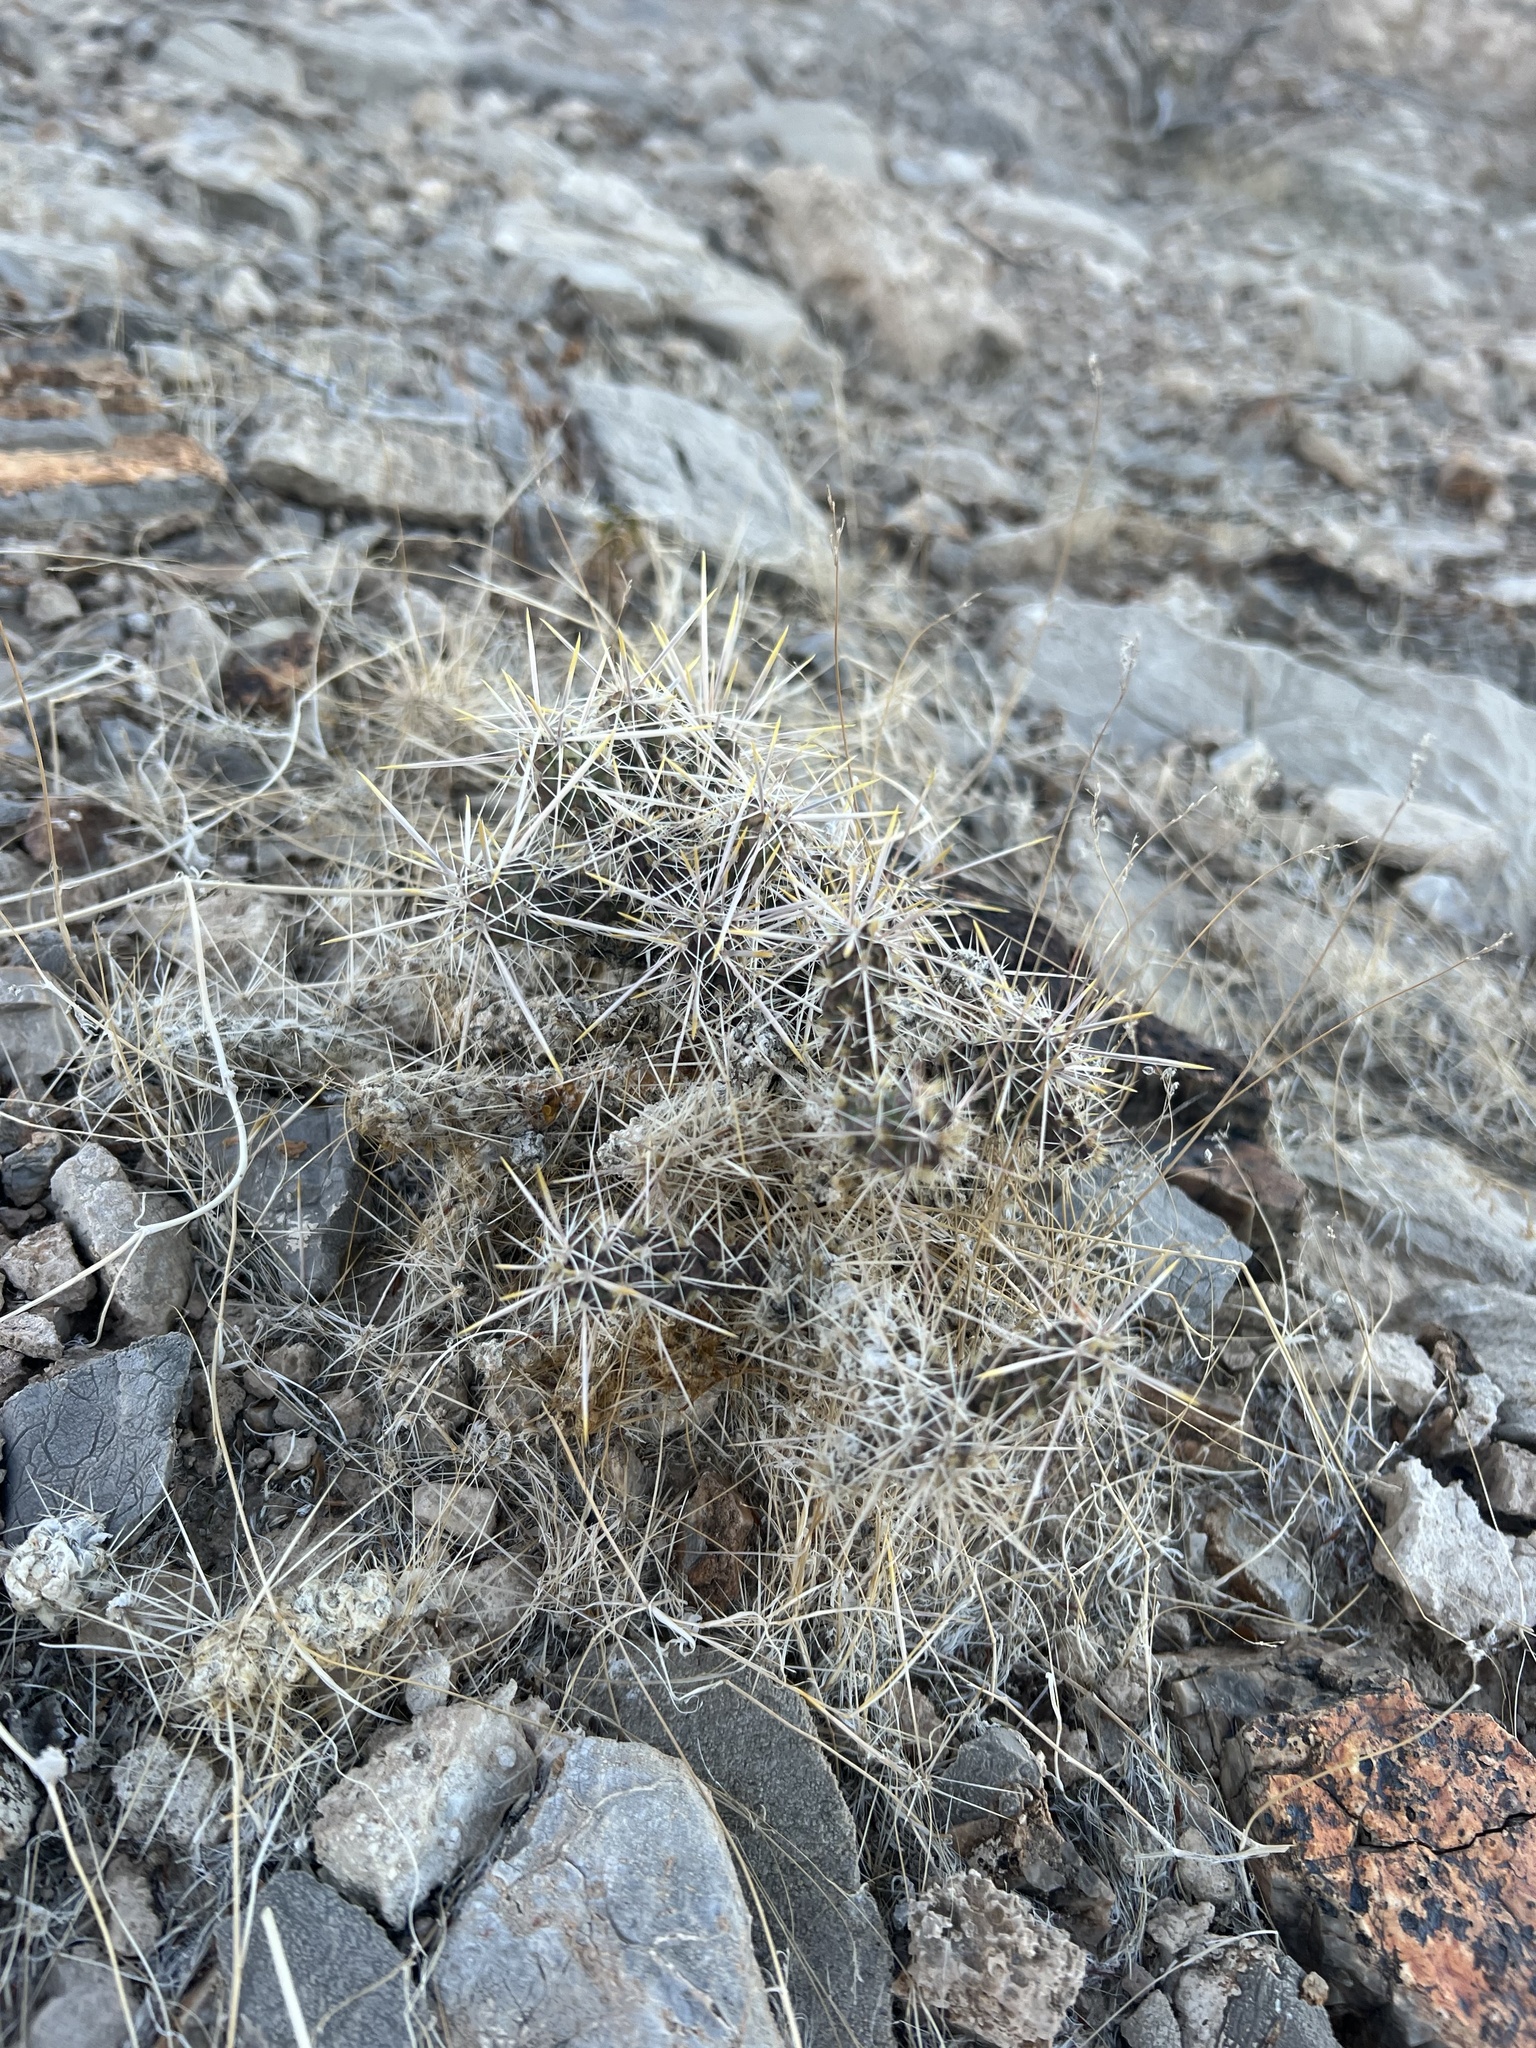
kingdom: Plantae
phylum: Tracheophyta
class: Magnoliopsida
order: Caryophyllales
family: Cactaceae
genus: Cylindropuntia
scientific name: Cylindropuntia ramosissima
